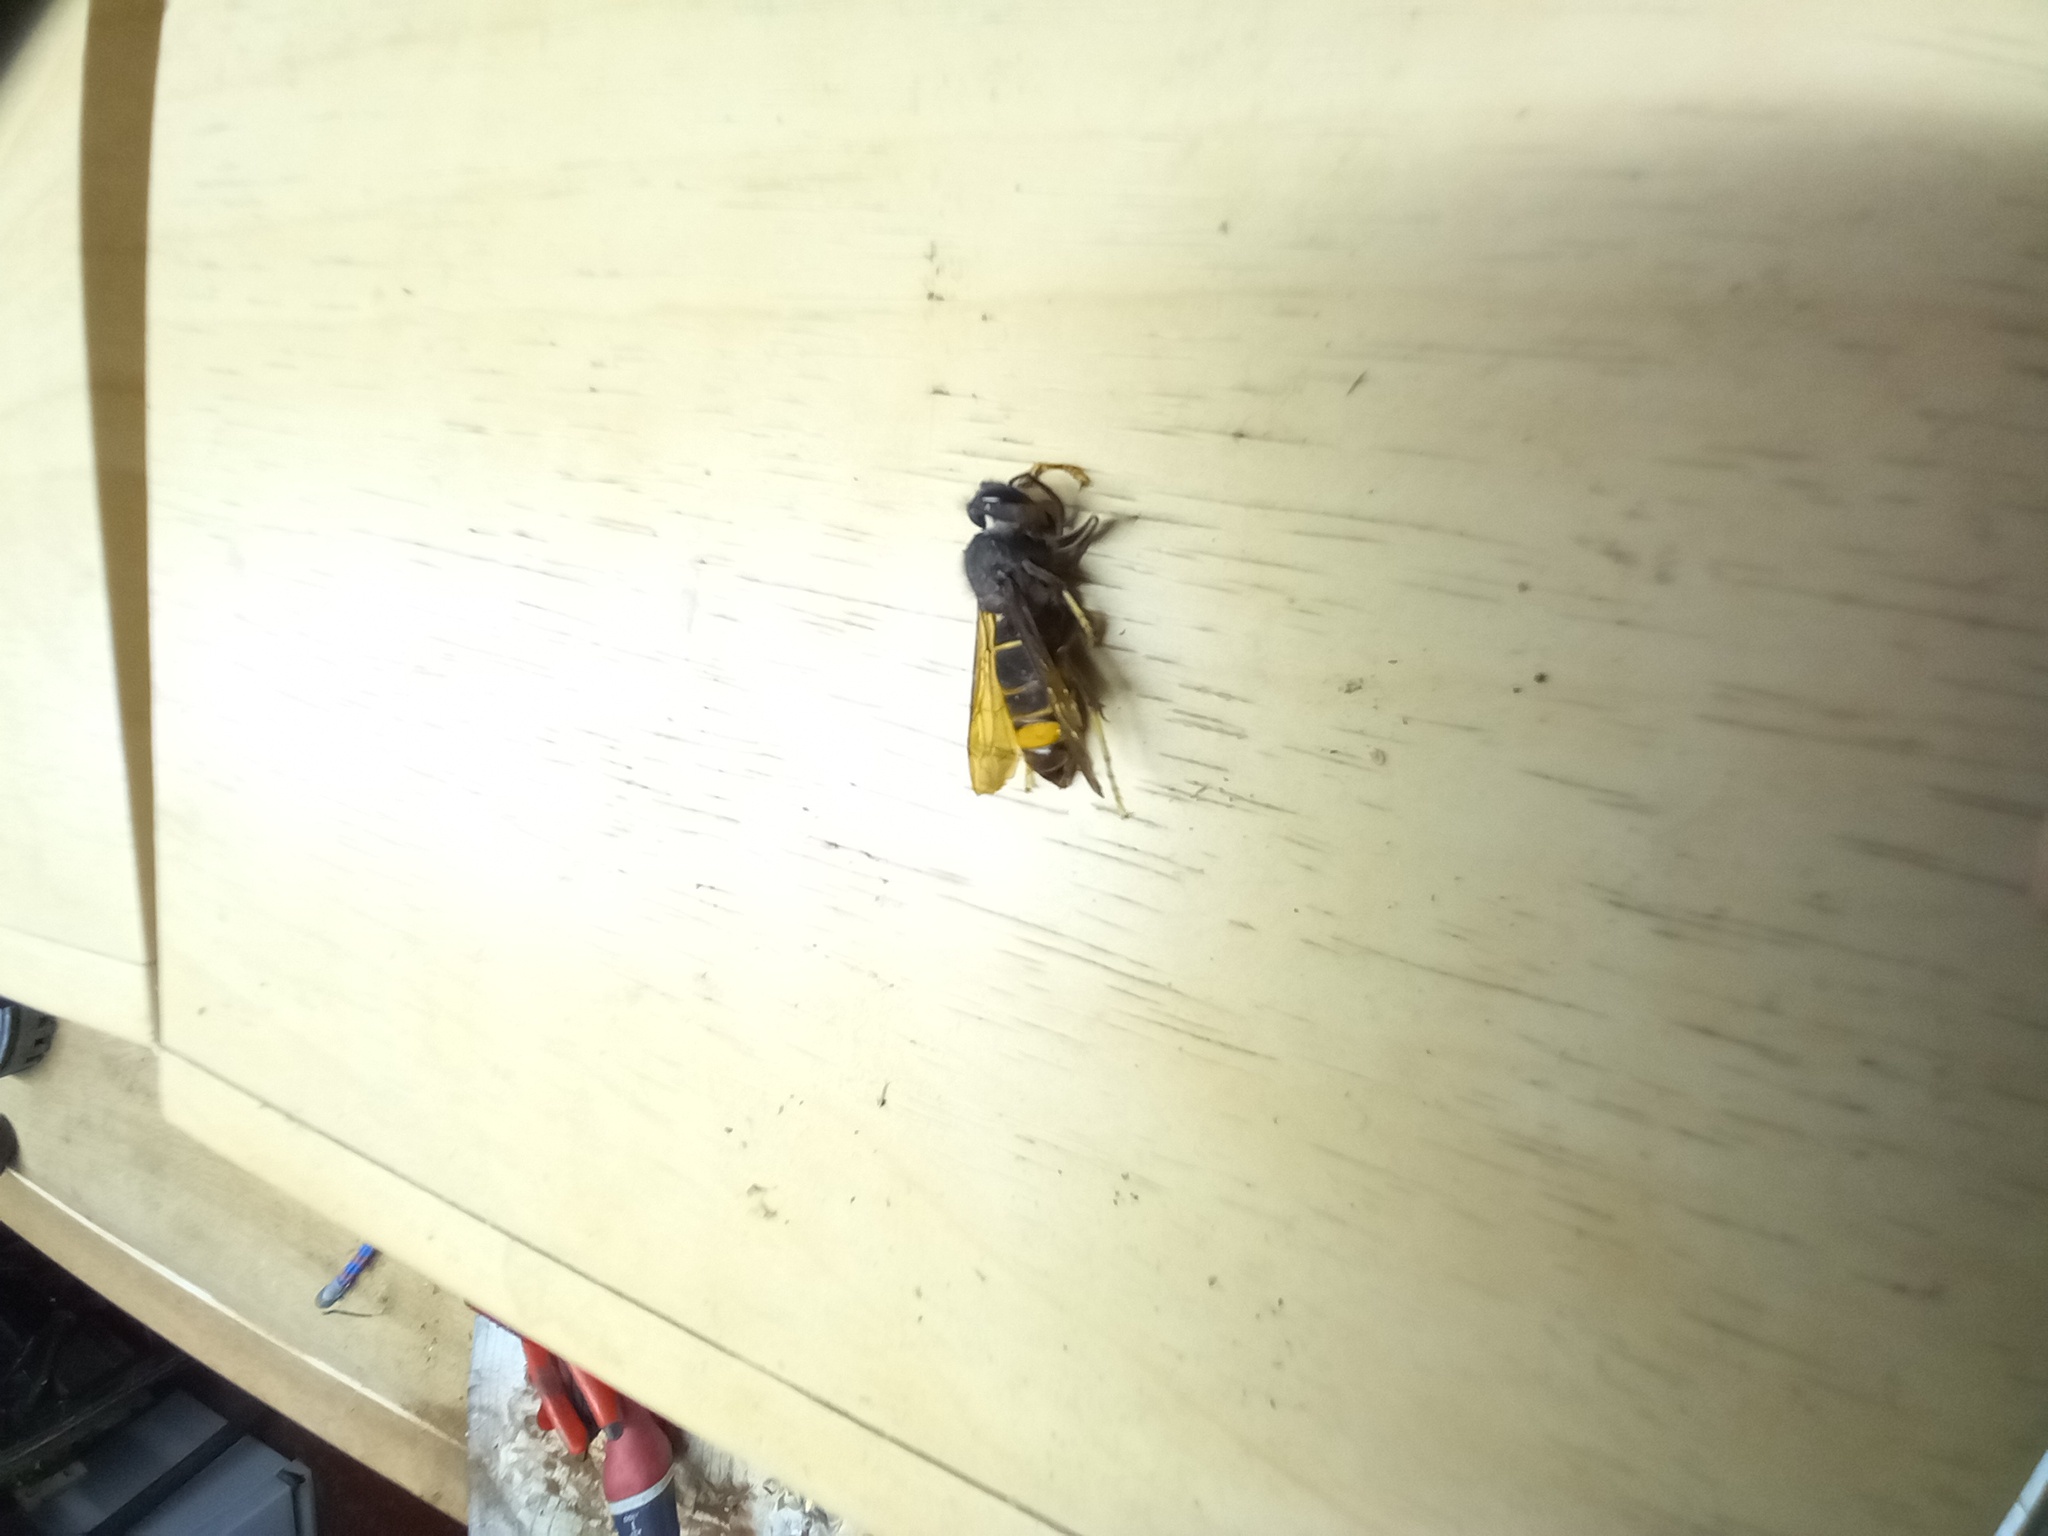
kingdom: Animalia
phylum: Arthropoda
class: Insecta
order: Hymenoptera
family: Vespidae
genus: Vespa
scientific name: Vespa velutina
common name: Asian hornet
